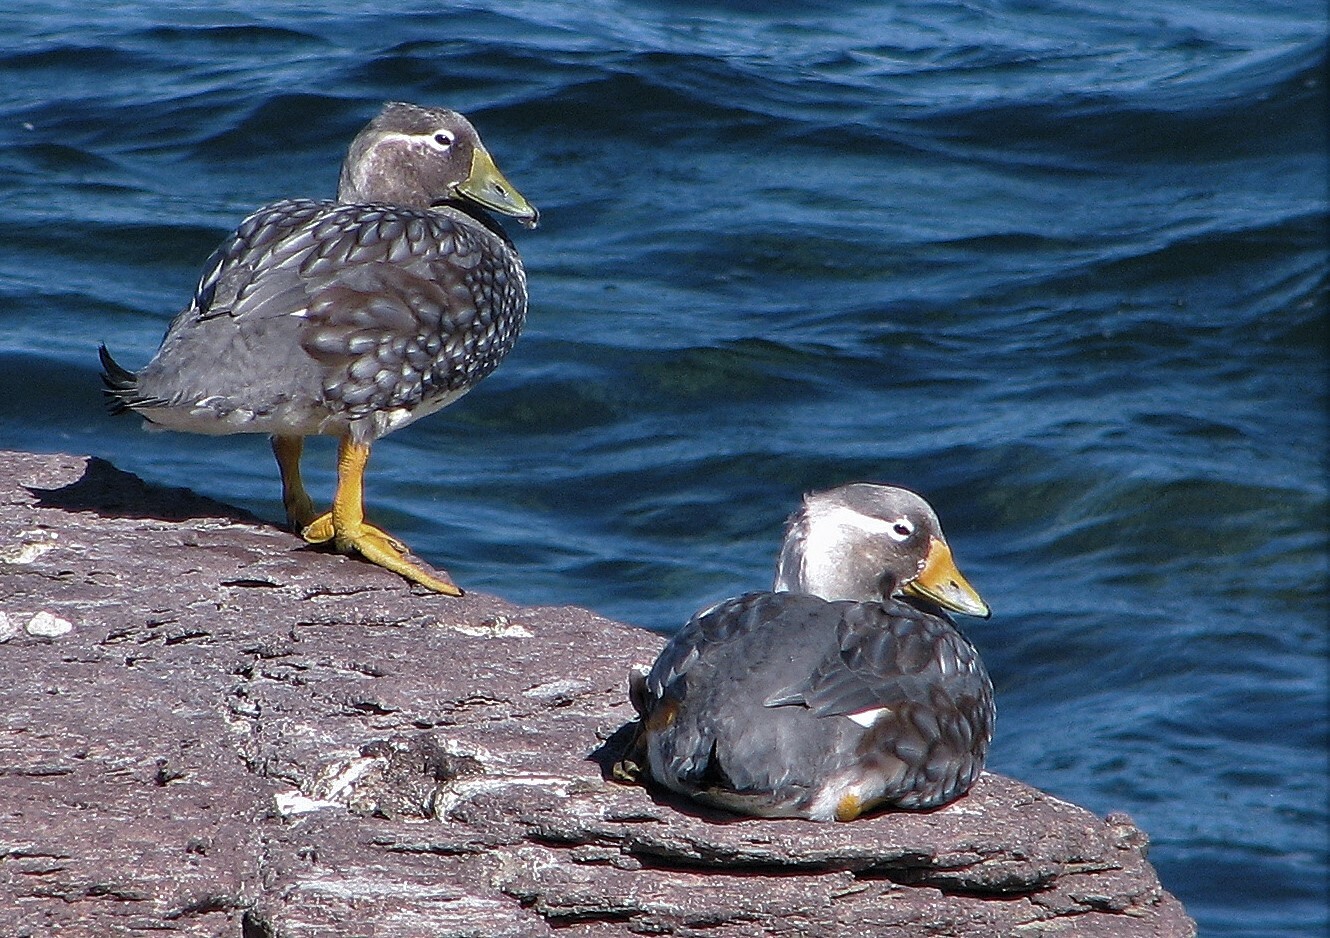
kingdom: Animalia
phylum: Chordata
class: Aves
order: Anseriformes
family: Anatidae
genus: Tachyeres
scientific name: Tachyeres leucocephalus
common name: Chubut steamer duck
